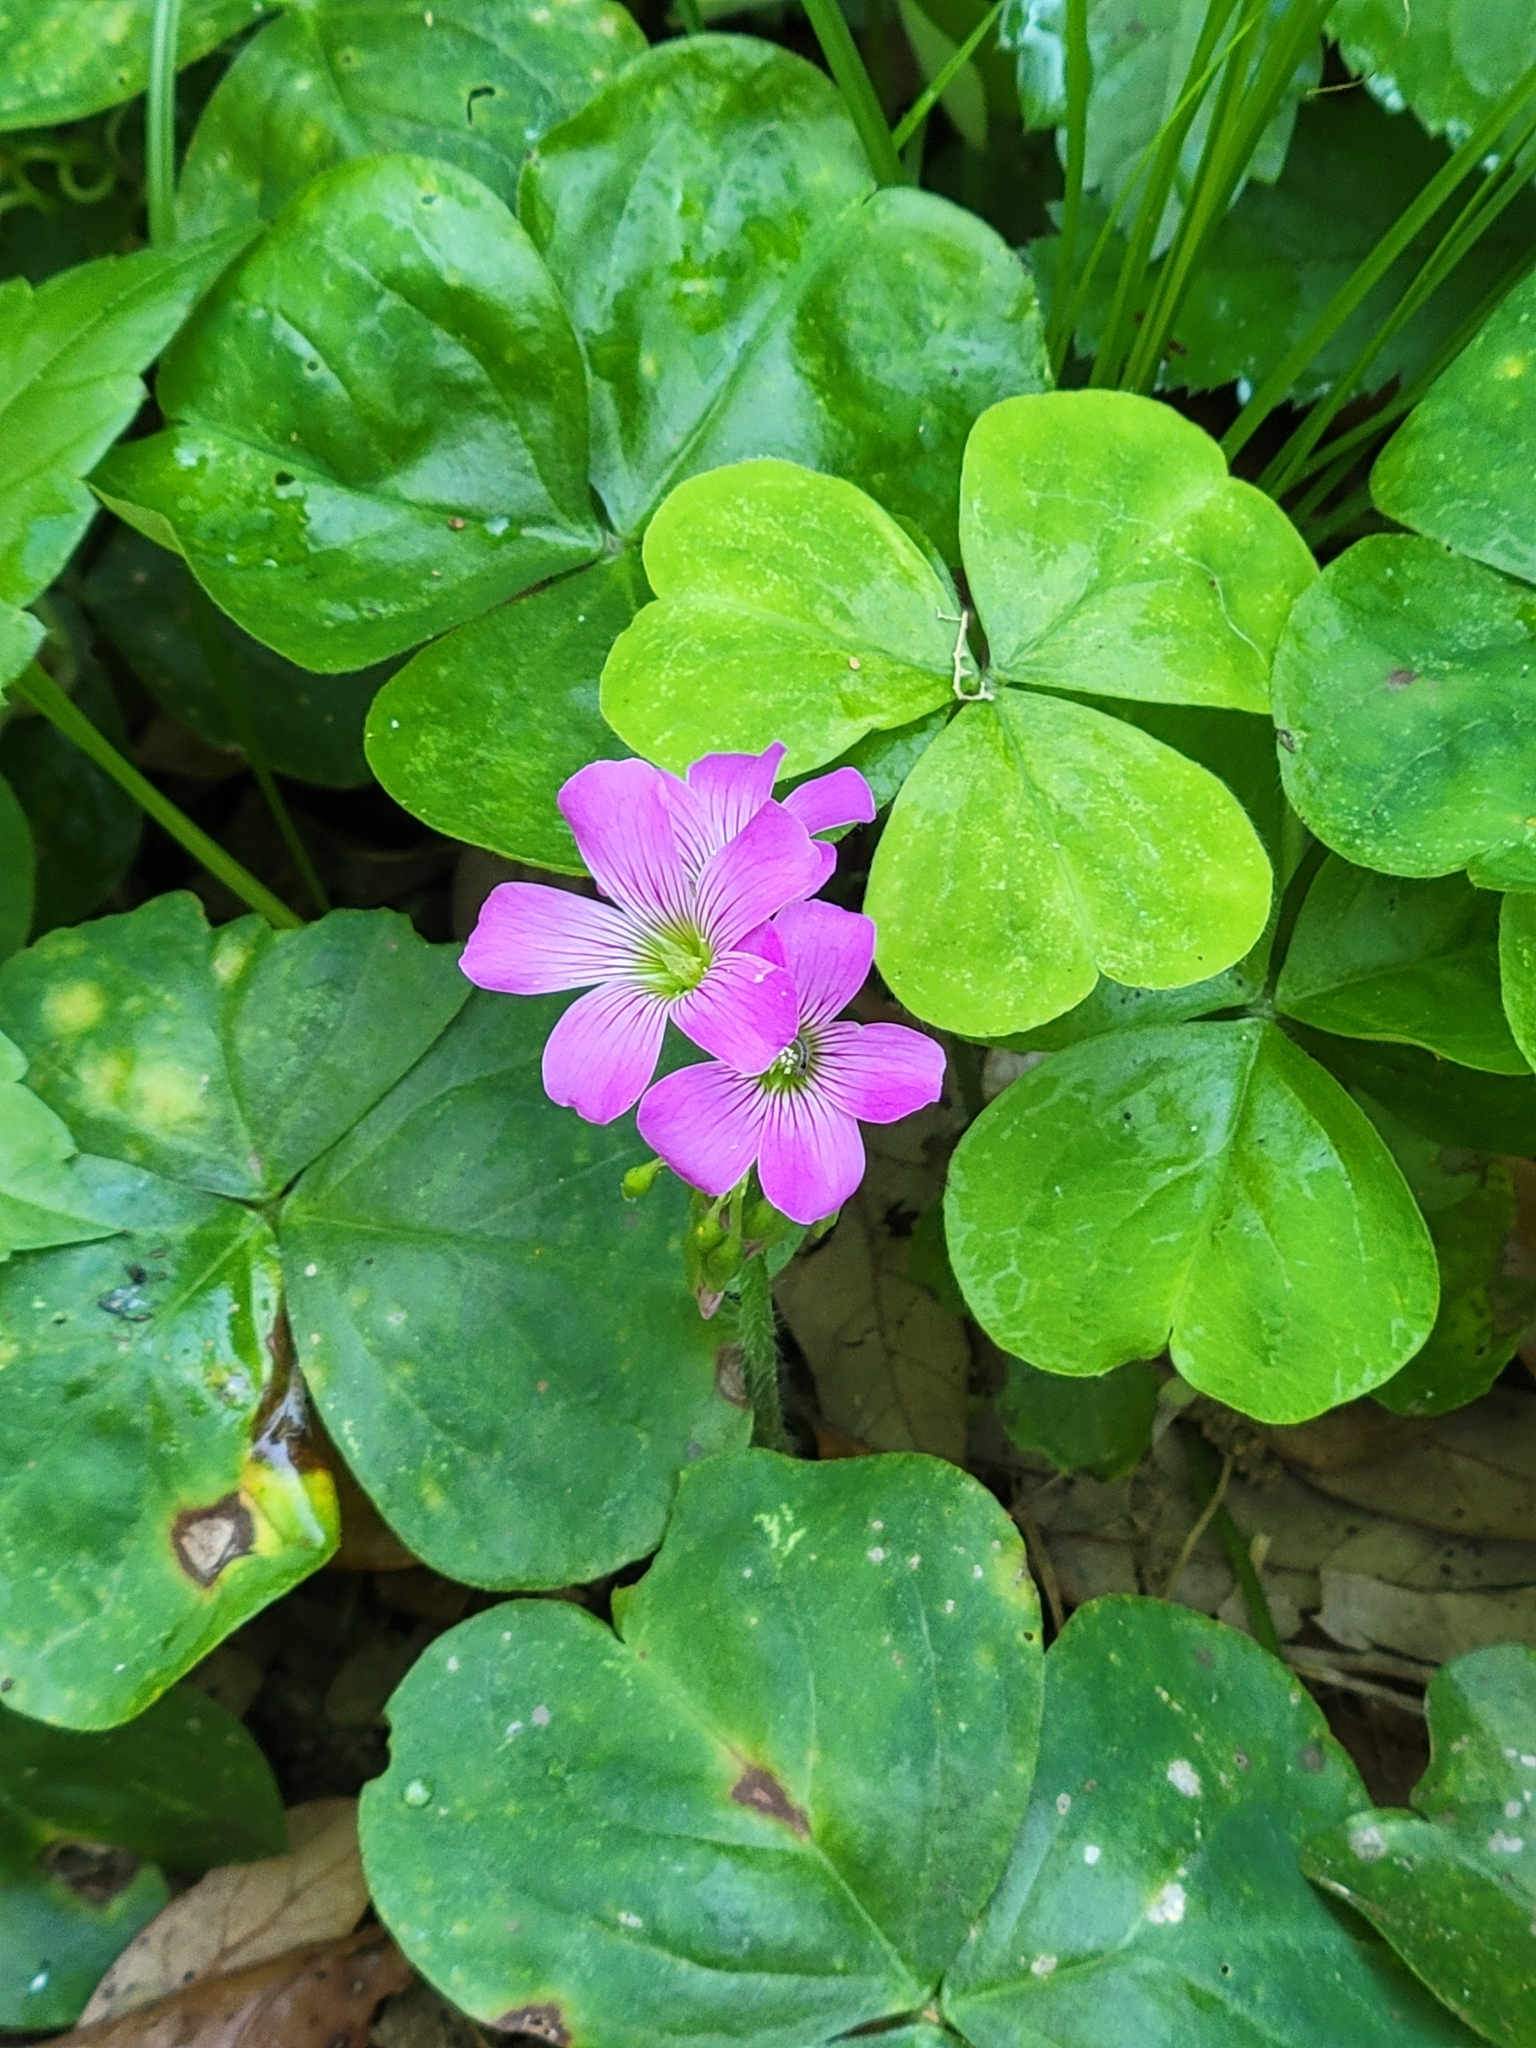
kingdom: Plantae
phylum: Tracheophyta
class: Magnoliopsida
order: Oxalidales
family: Oxalidaceae
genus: Oxalis
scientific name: Oxalis debilis
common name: Large-flowered pink-sorrel
